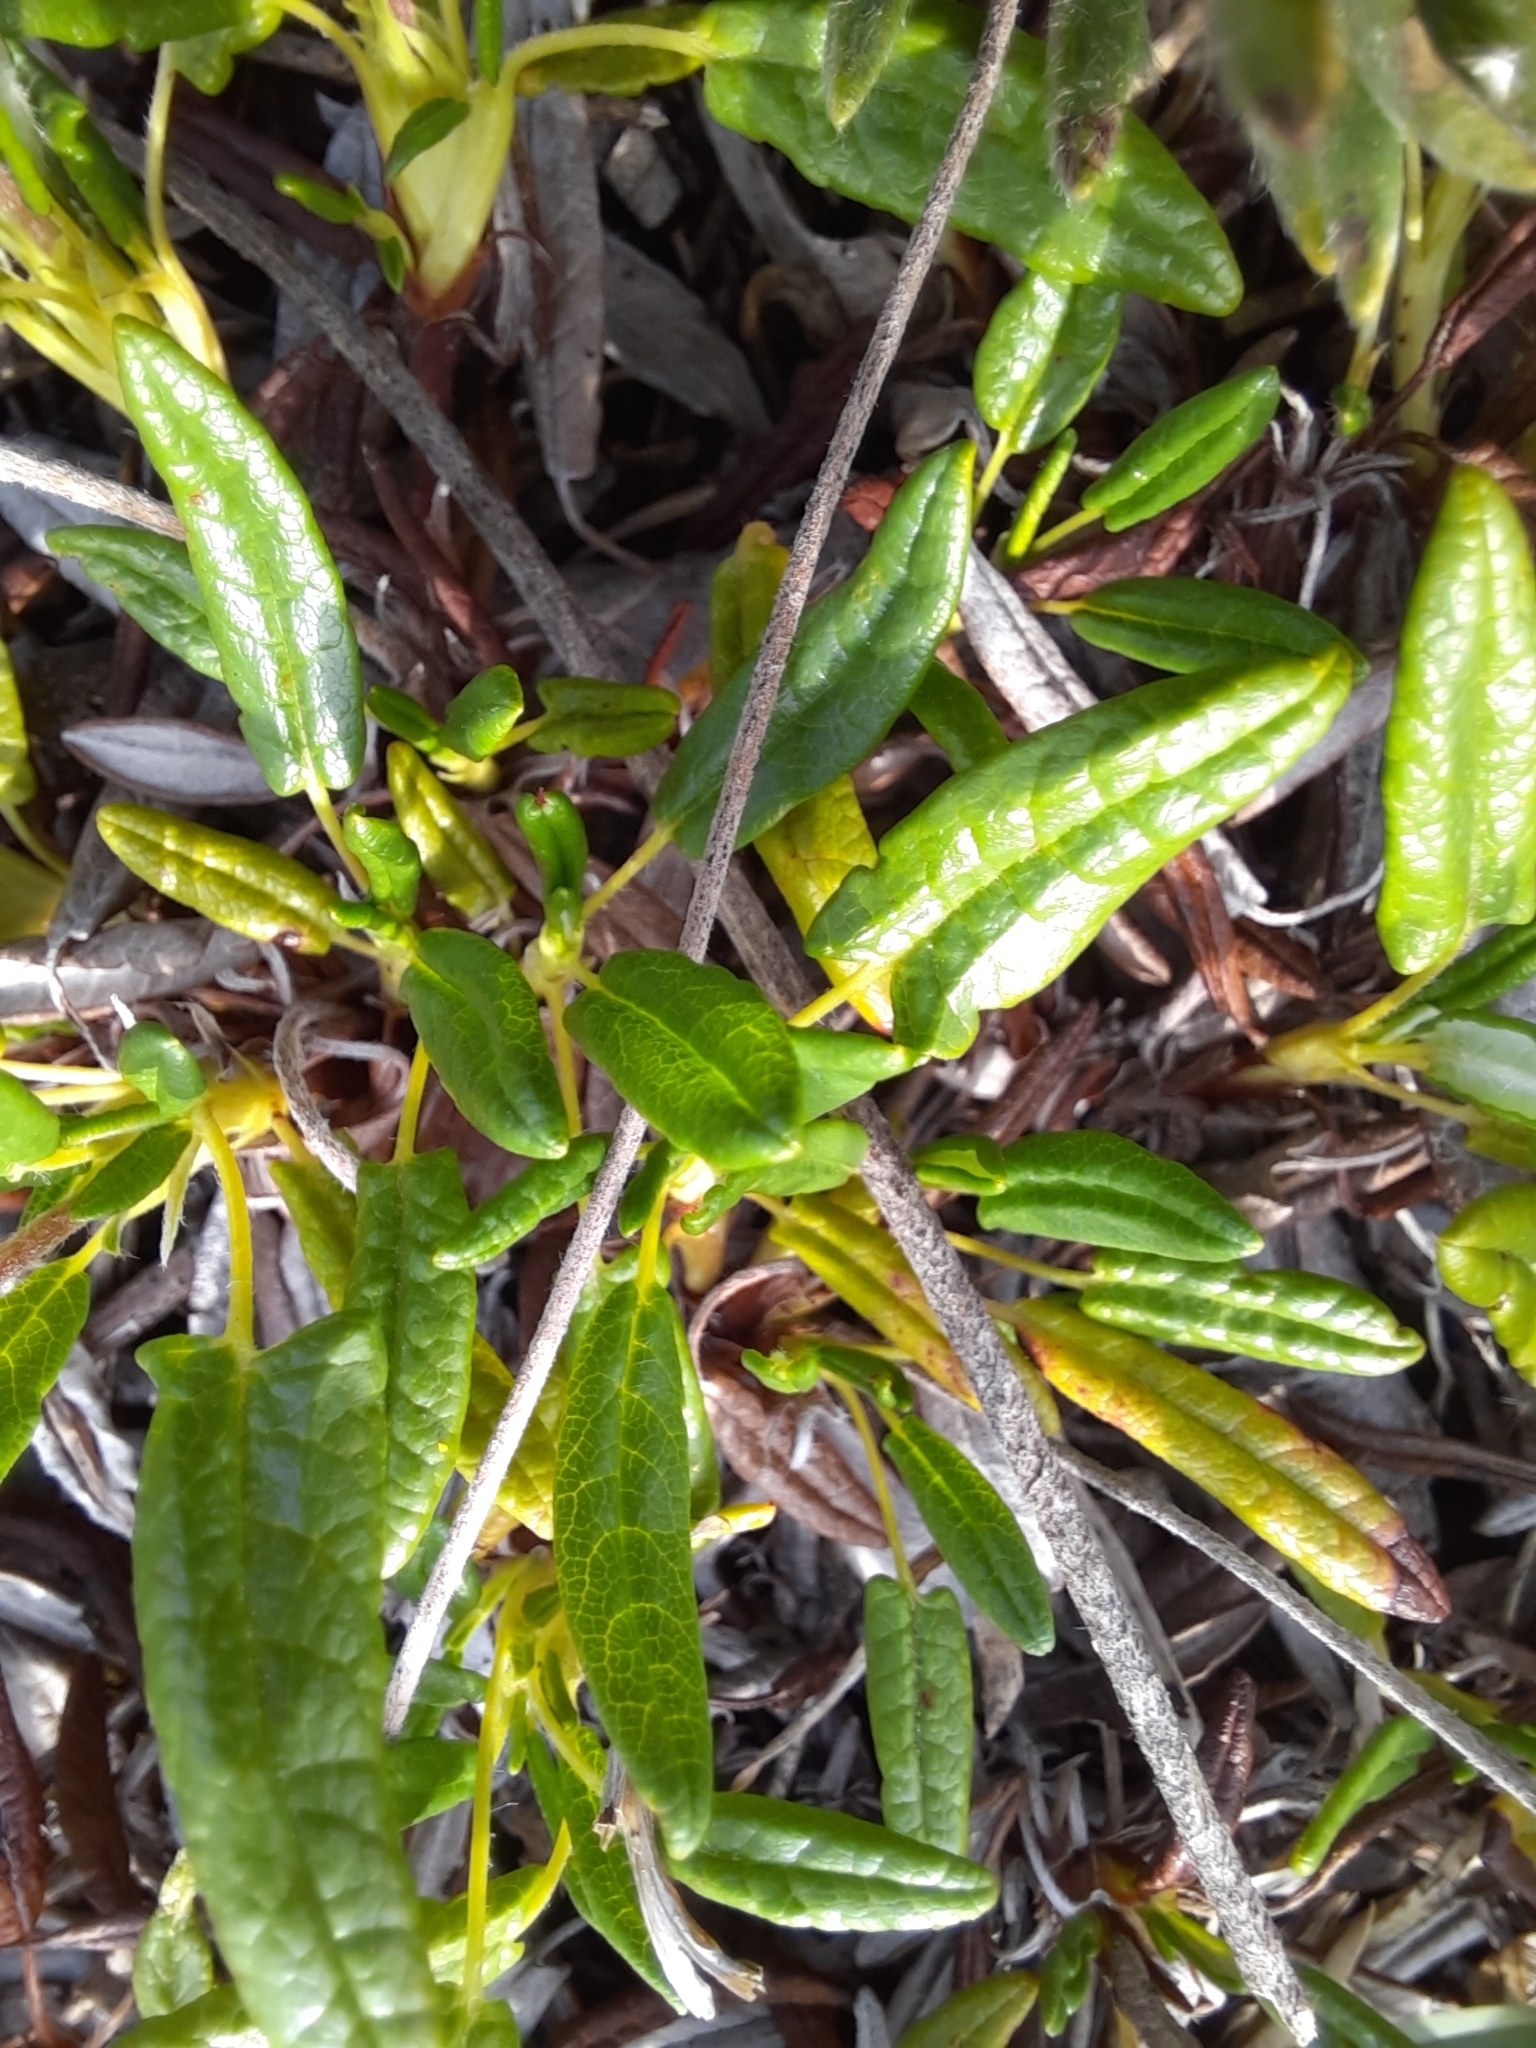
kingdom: Plantae
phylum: Tracheophyta
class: Magnoliopsida
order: Rosales
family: Rosaceae
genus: Dryas
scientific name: Dryas integrifolia
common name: Entire-leaved mountain avens
